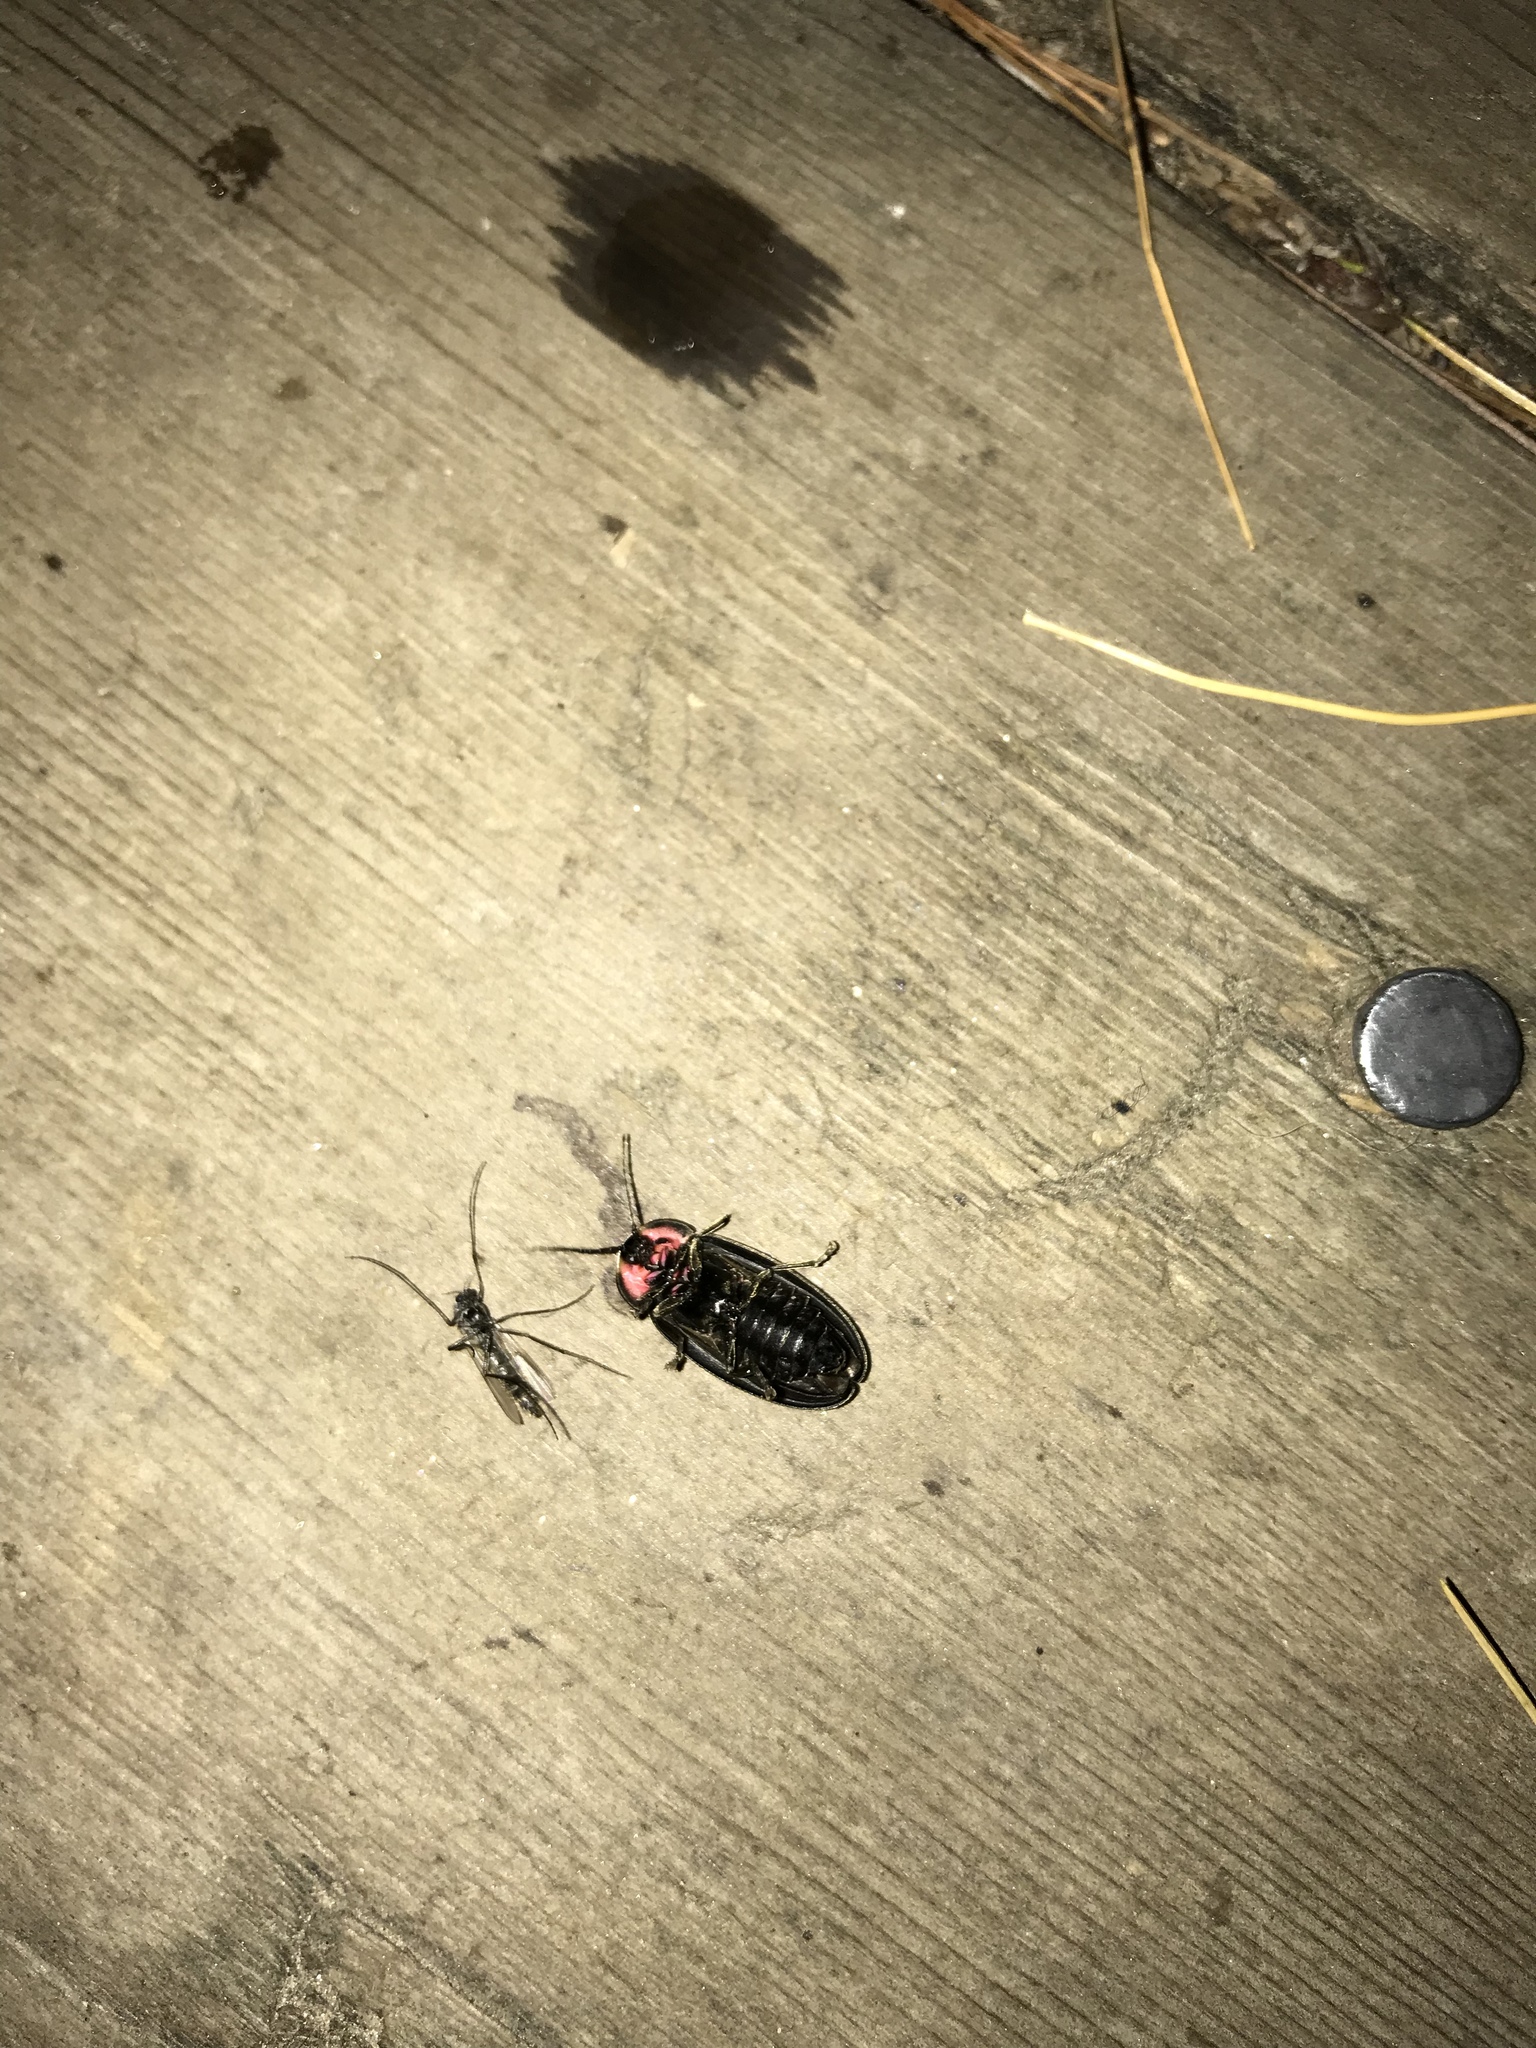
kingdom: Animalia
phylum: Arthropoda
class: Insecta
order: Coleoptera
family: Lampyridae
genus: Photinus
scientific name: Photinus corrusca
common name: Winter firefly
